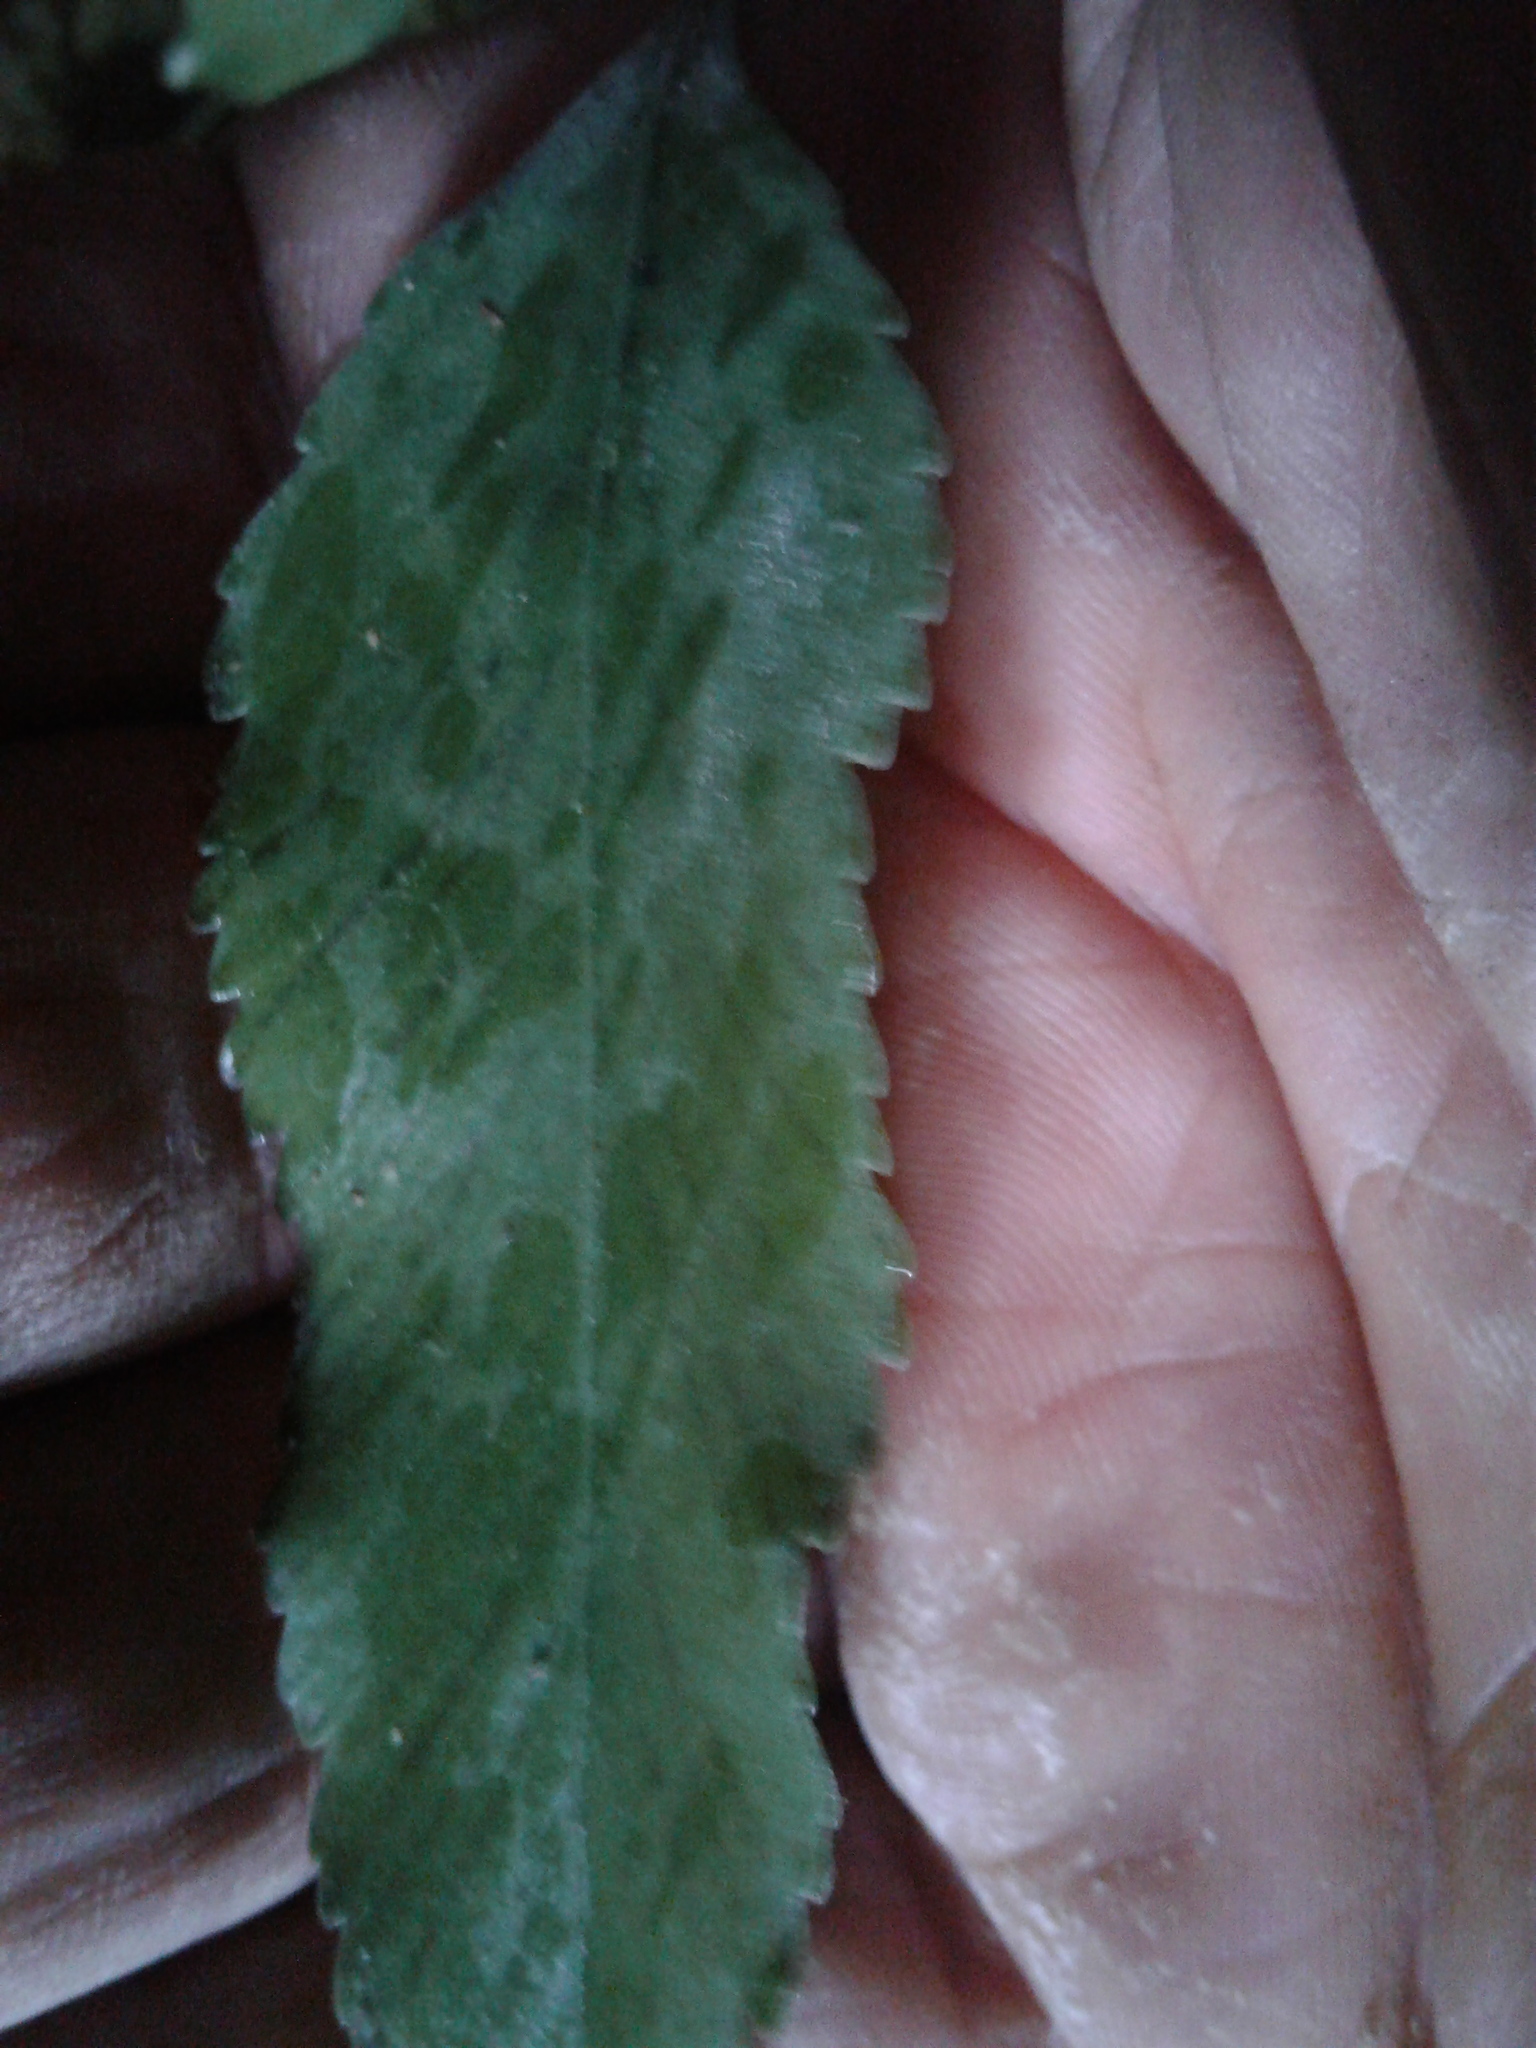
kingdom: Plantae
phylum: Tracheophyta
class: Polypodiopsida
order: Polypodiales
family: Aspleniaceae
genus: Asplenium
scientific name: Asplenium lepidotum
